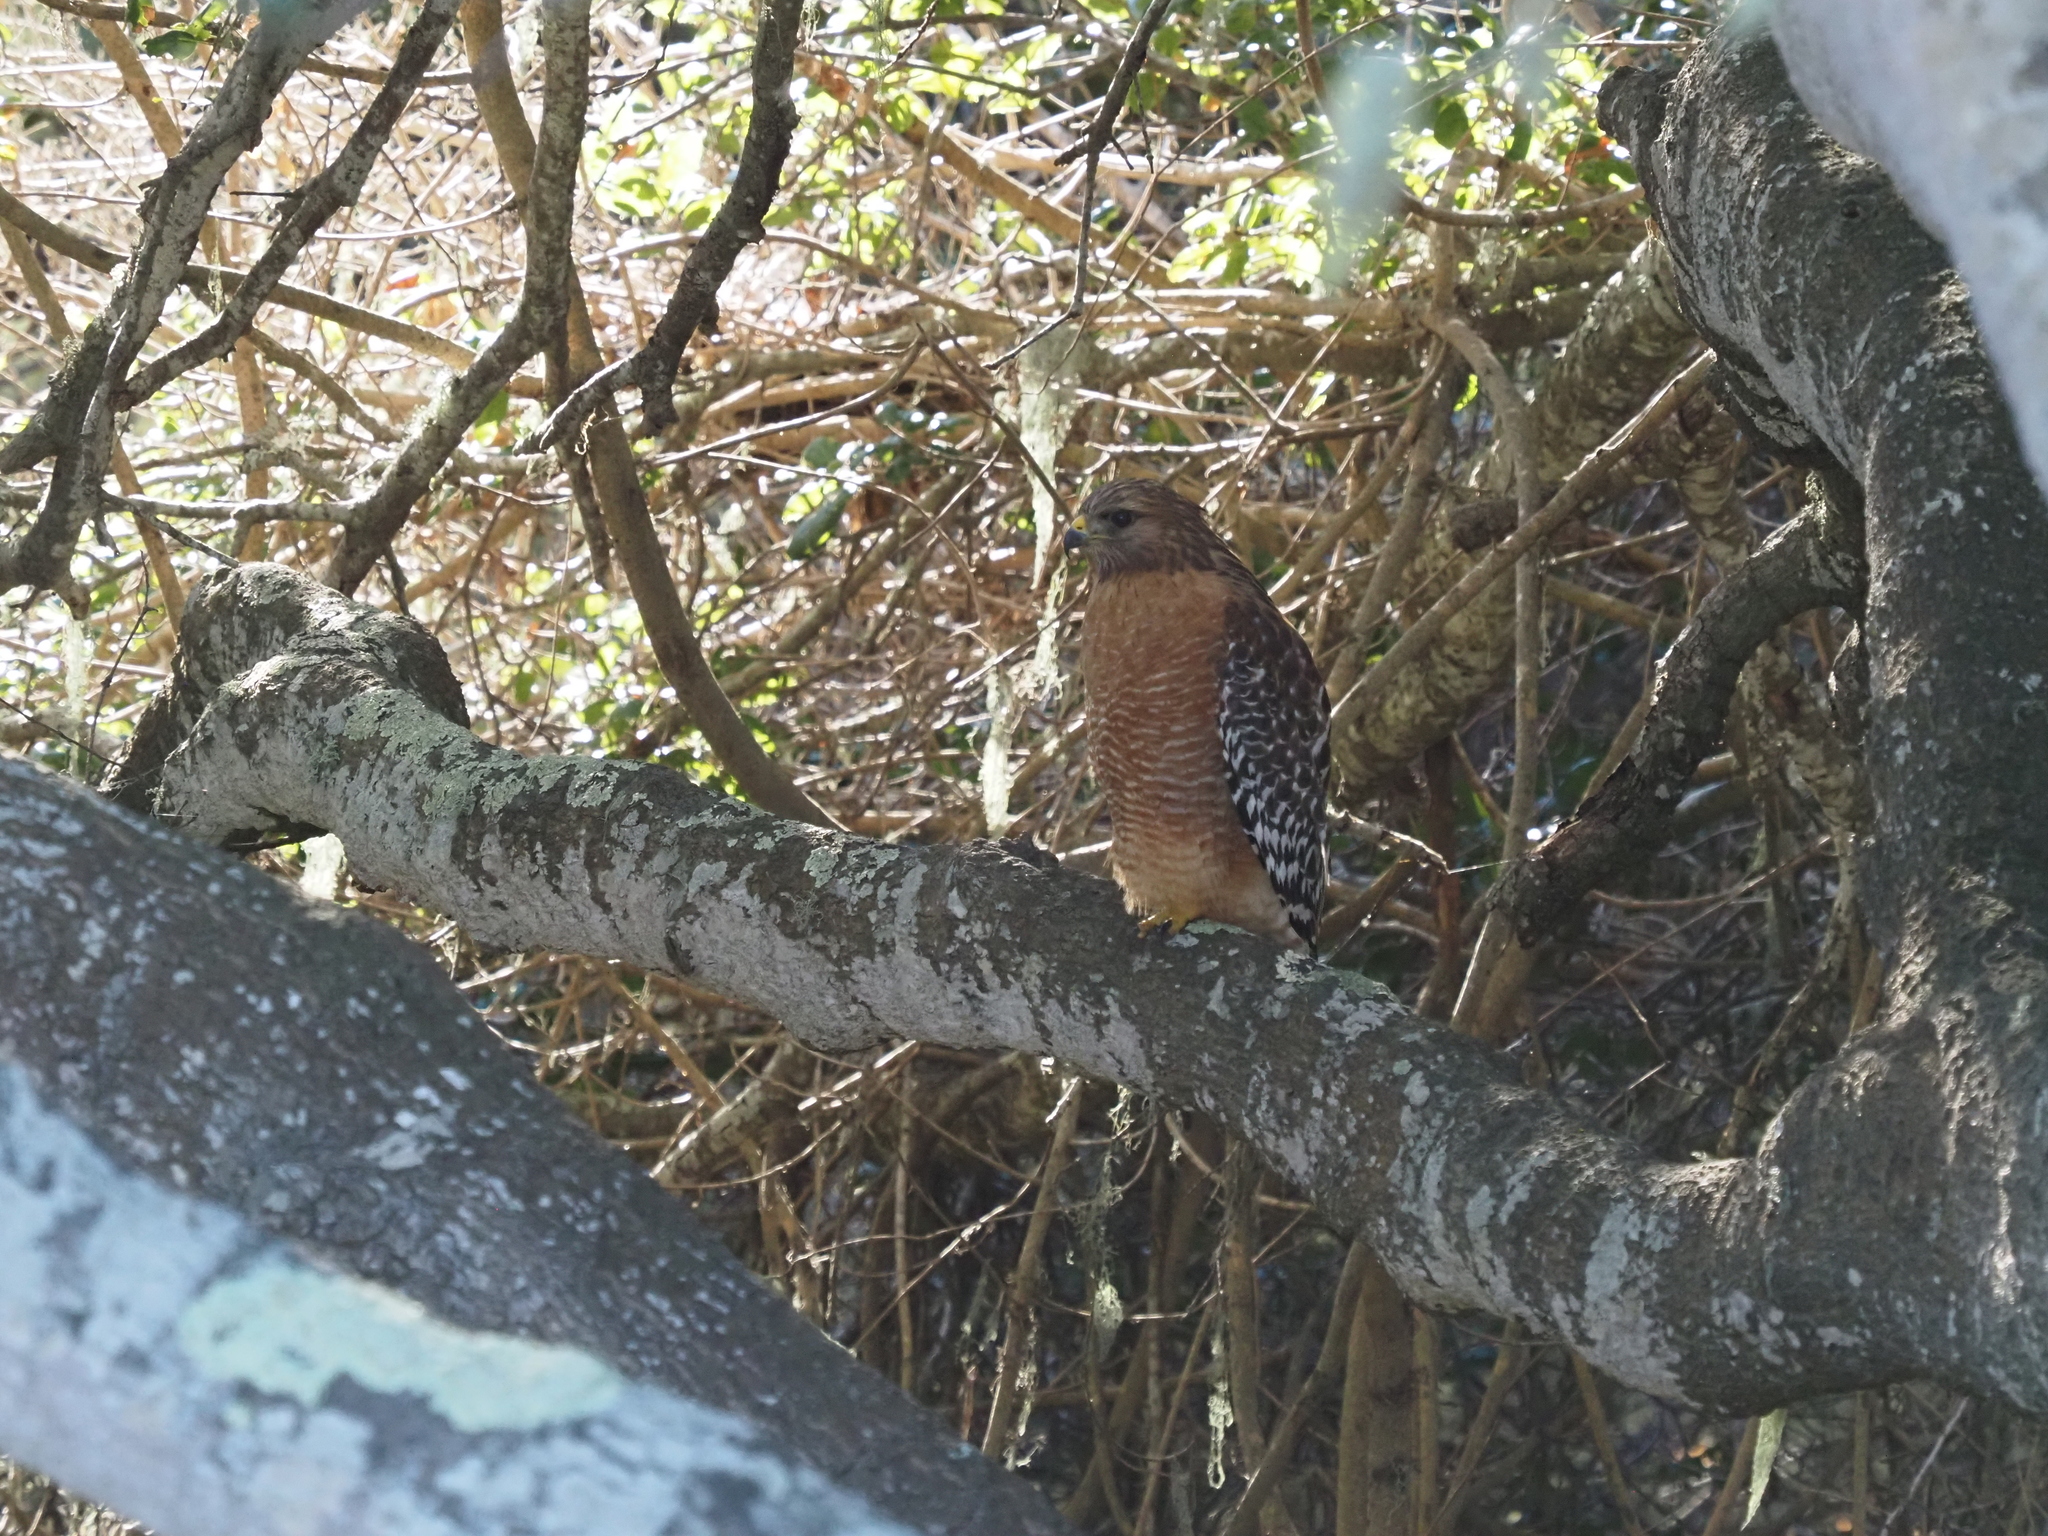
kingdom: Animalia
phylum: Chordata
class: Aves
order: Accipitriformes
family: Accipitridae
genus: Buteo
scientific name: Buteo lineatus
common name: Red-shouldered hawk
